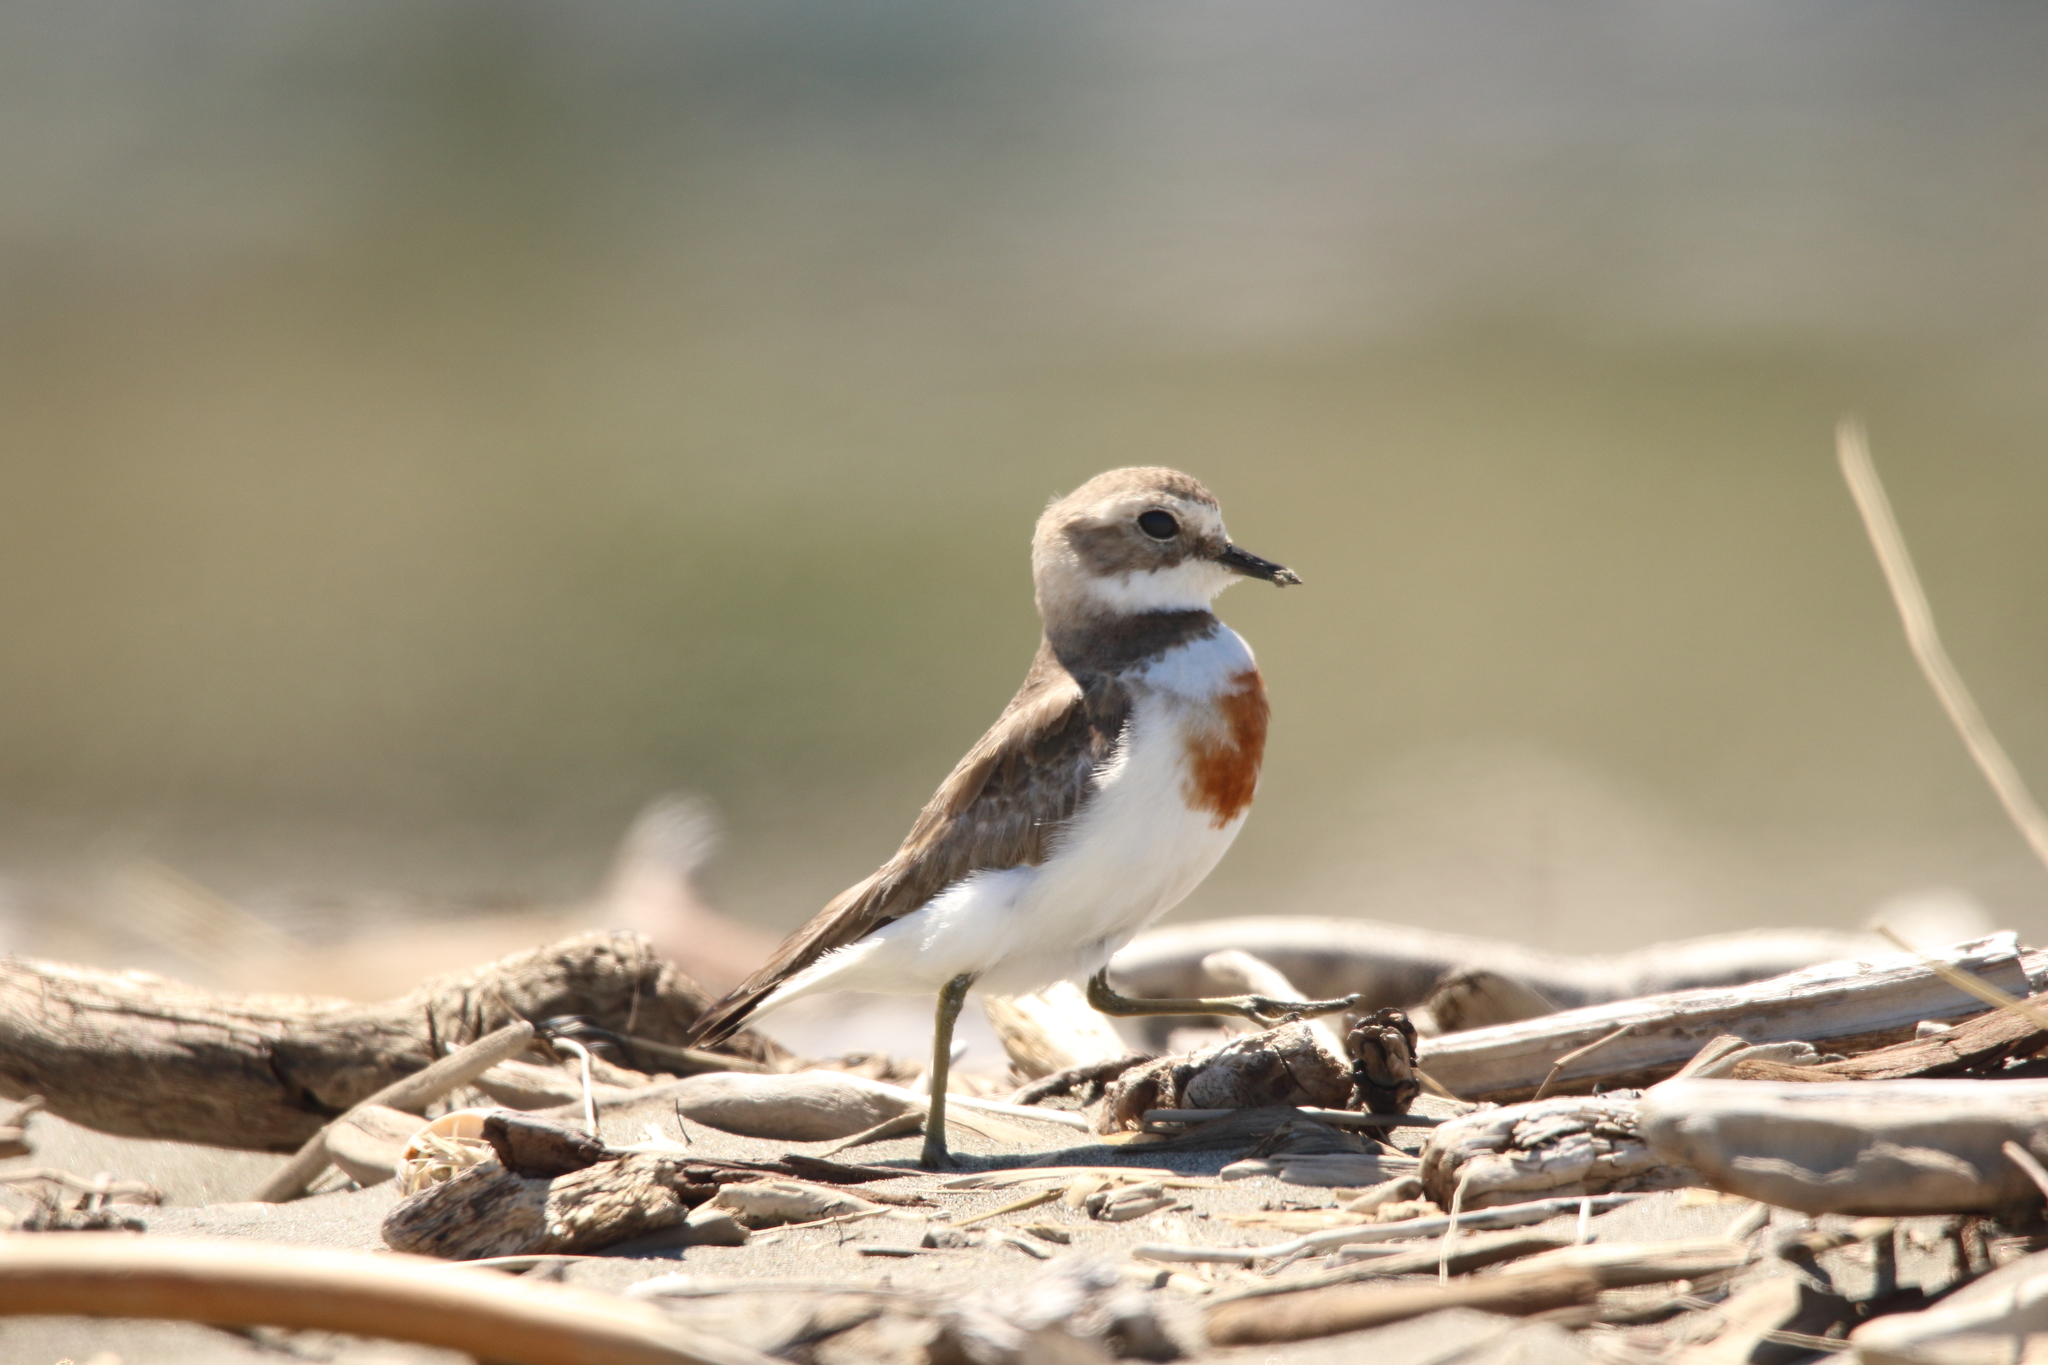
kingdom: Animalia
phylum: Chordata
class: Aves
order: Charadriiformes
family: Charadriidae
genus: Anarhynchus
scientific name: Anarhynchus
